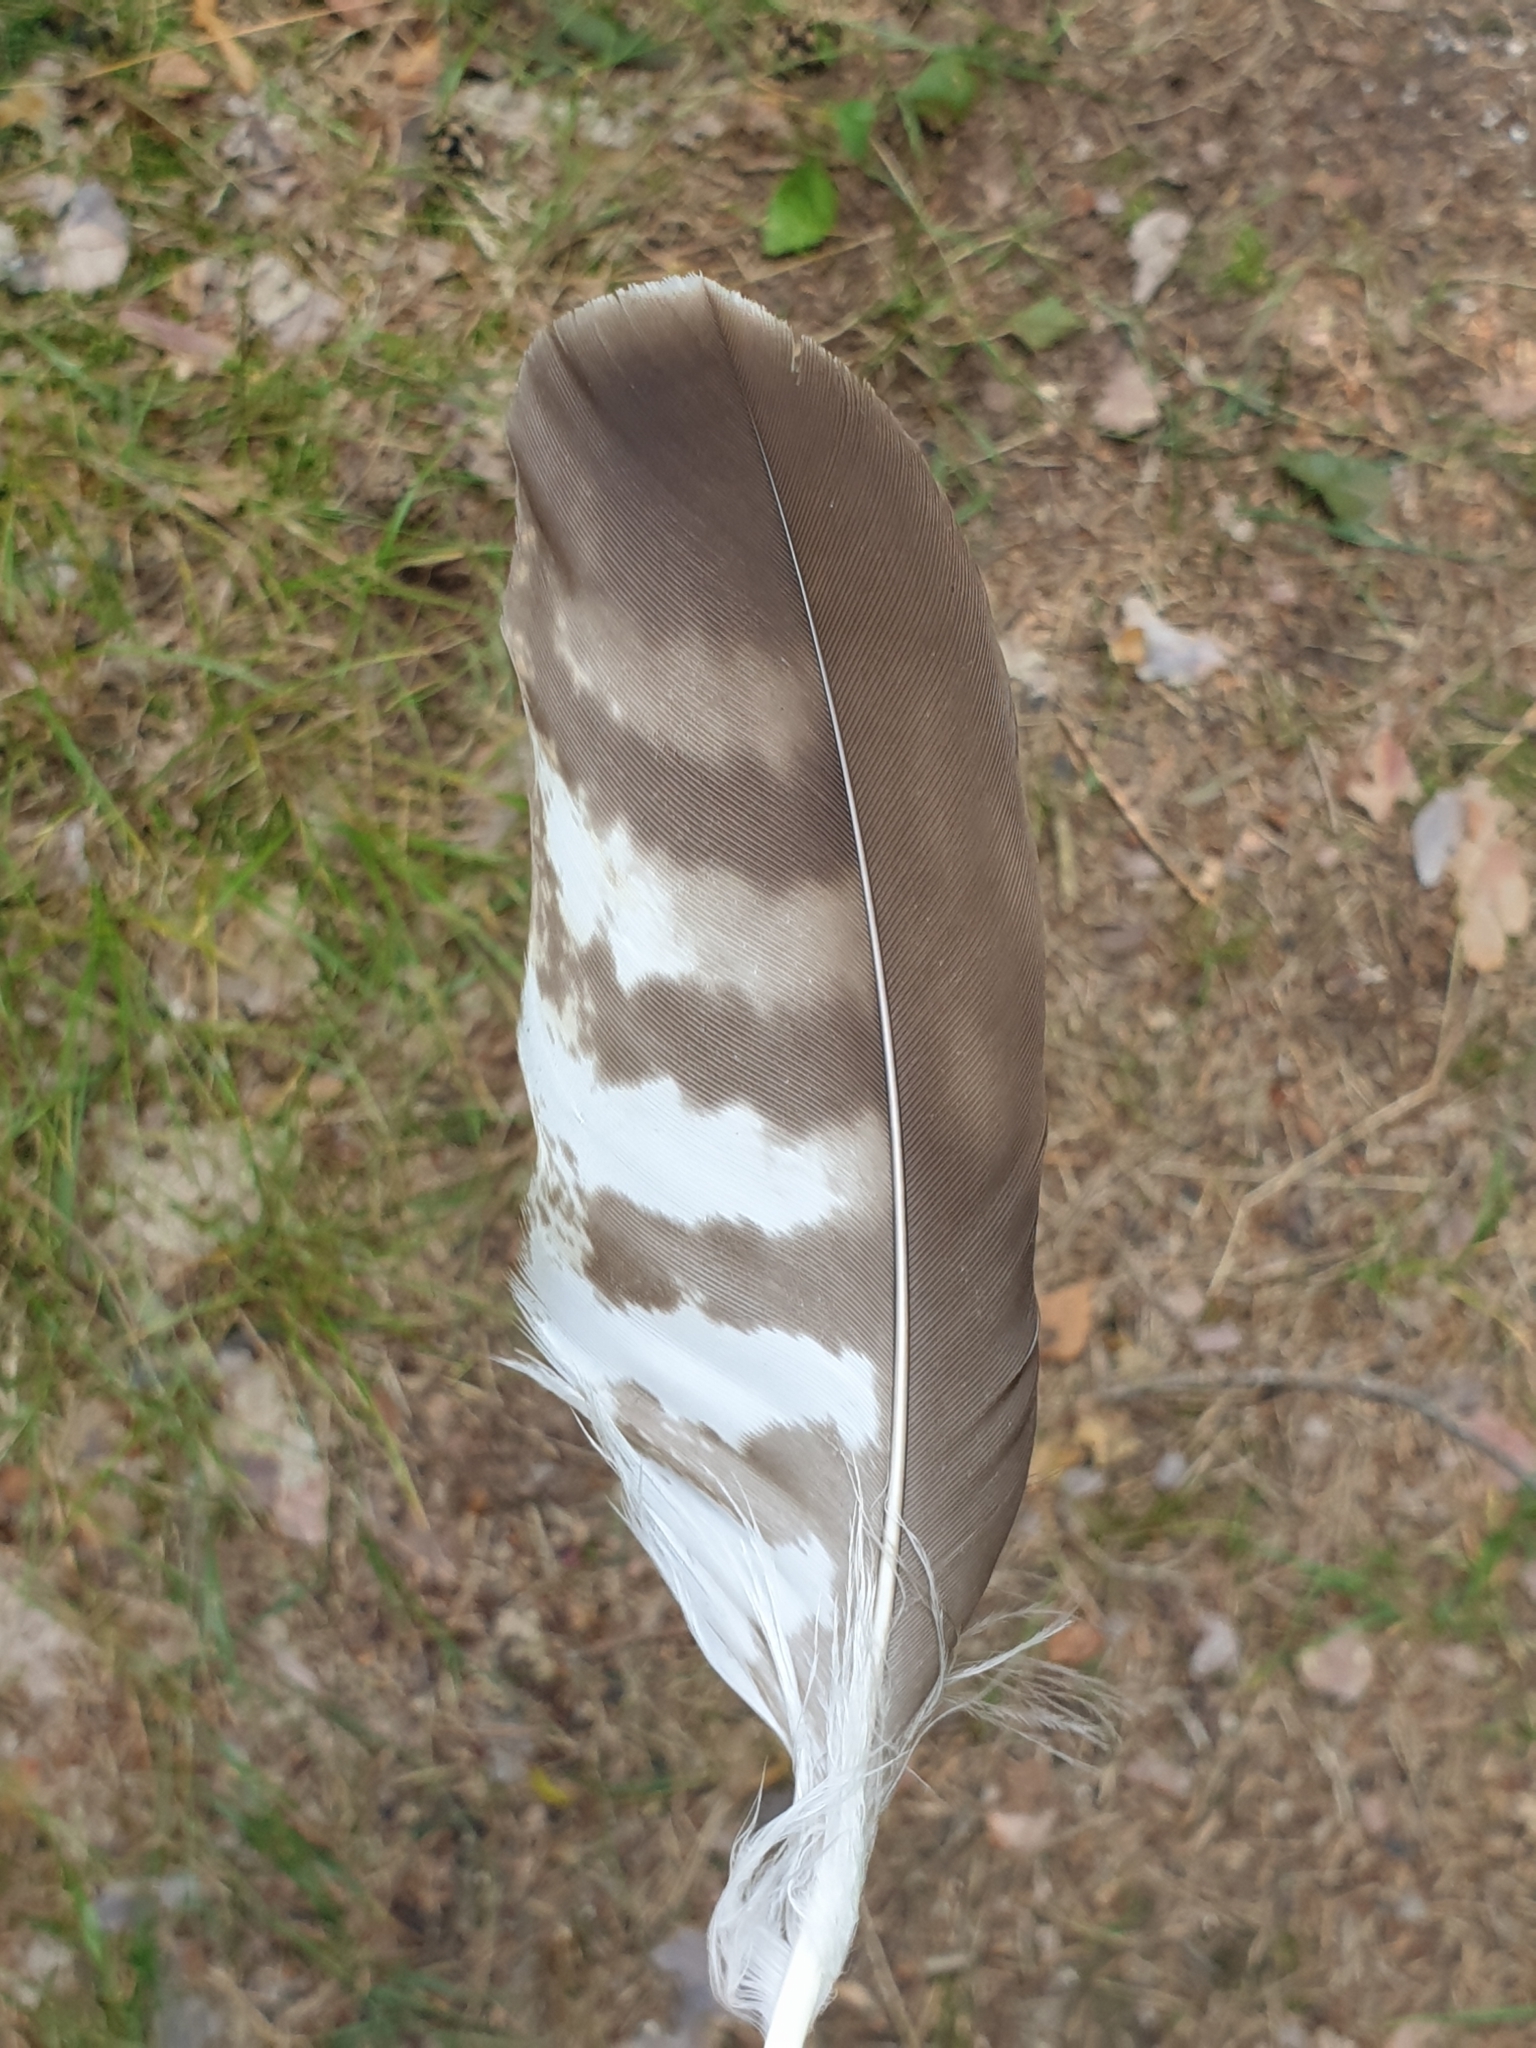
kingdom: Animalia
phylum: Chordata
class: Aves
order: Accipitriformes
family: Accipitridae
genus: Buteo
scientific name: Buteo buteo
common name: Common buzzard
